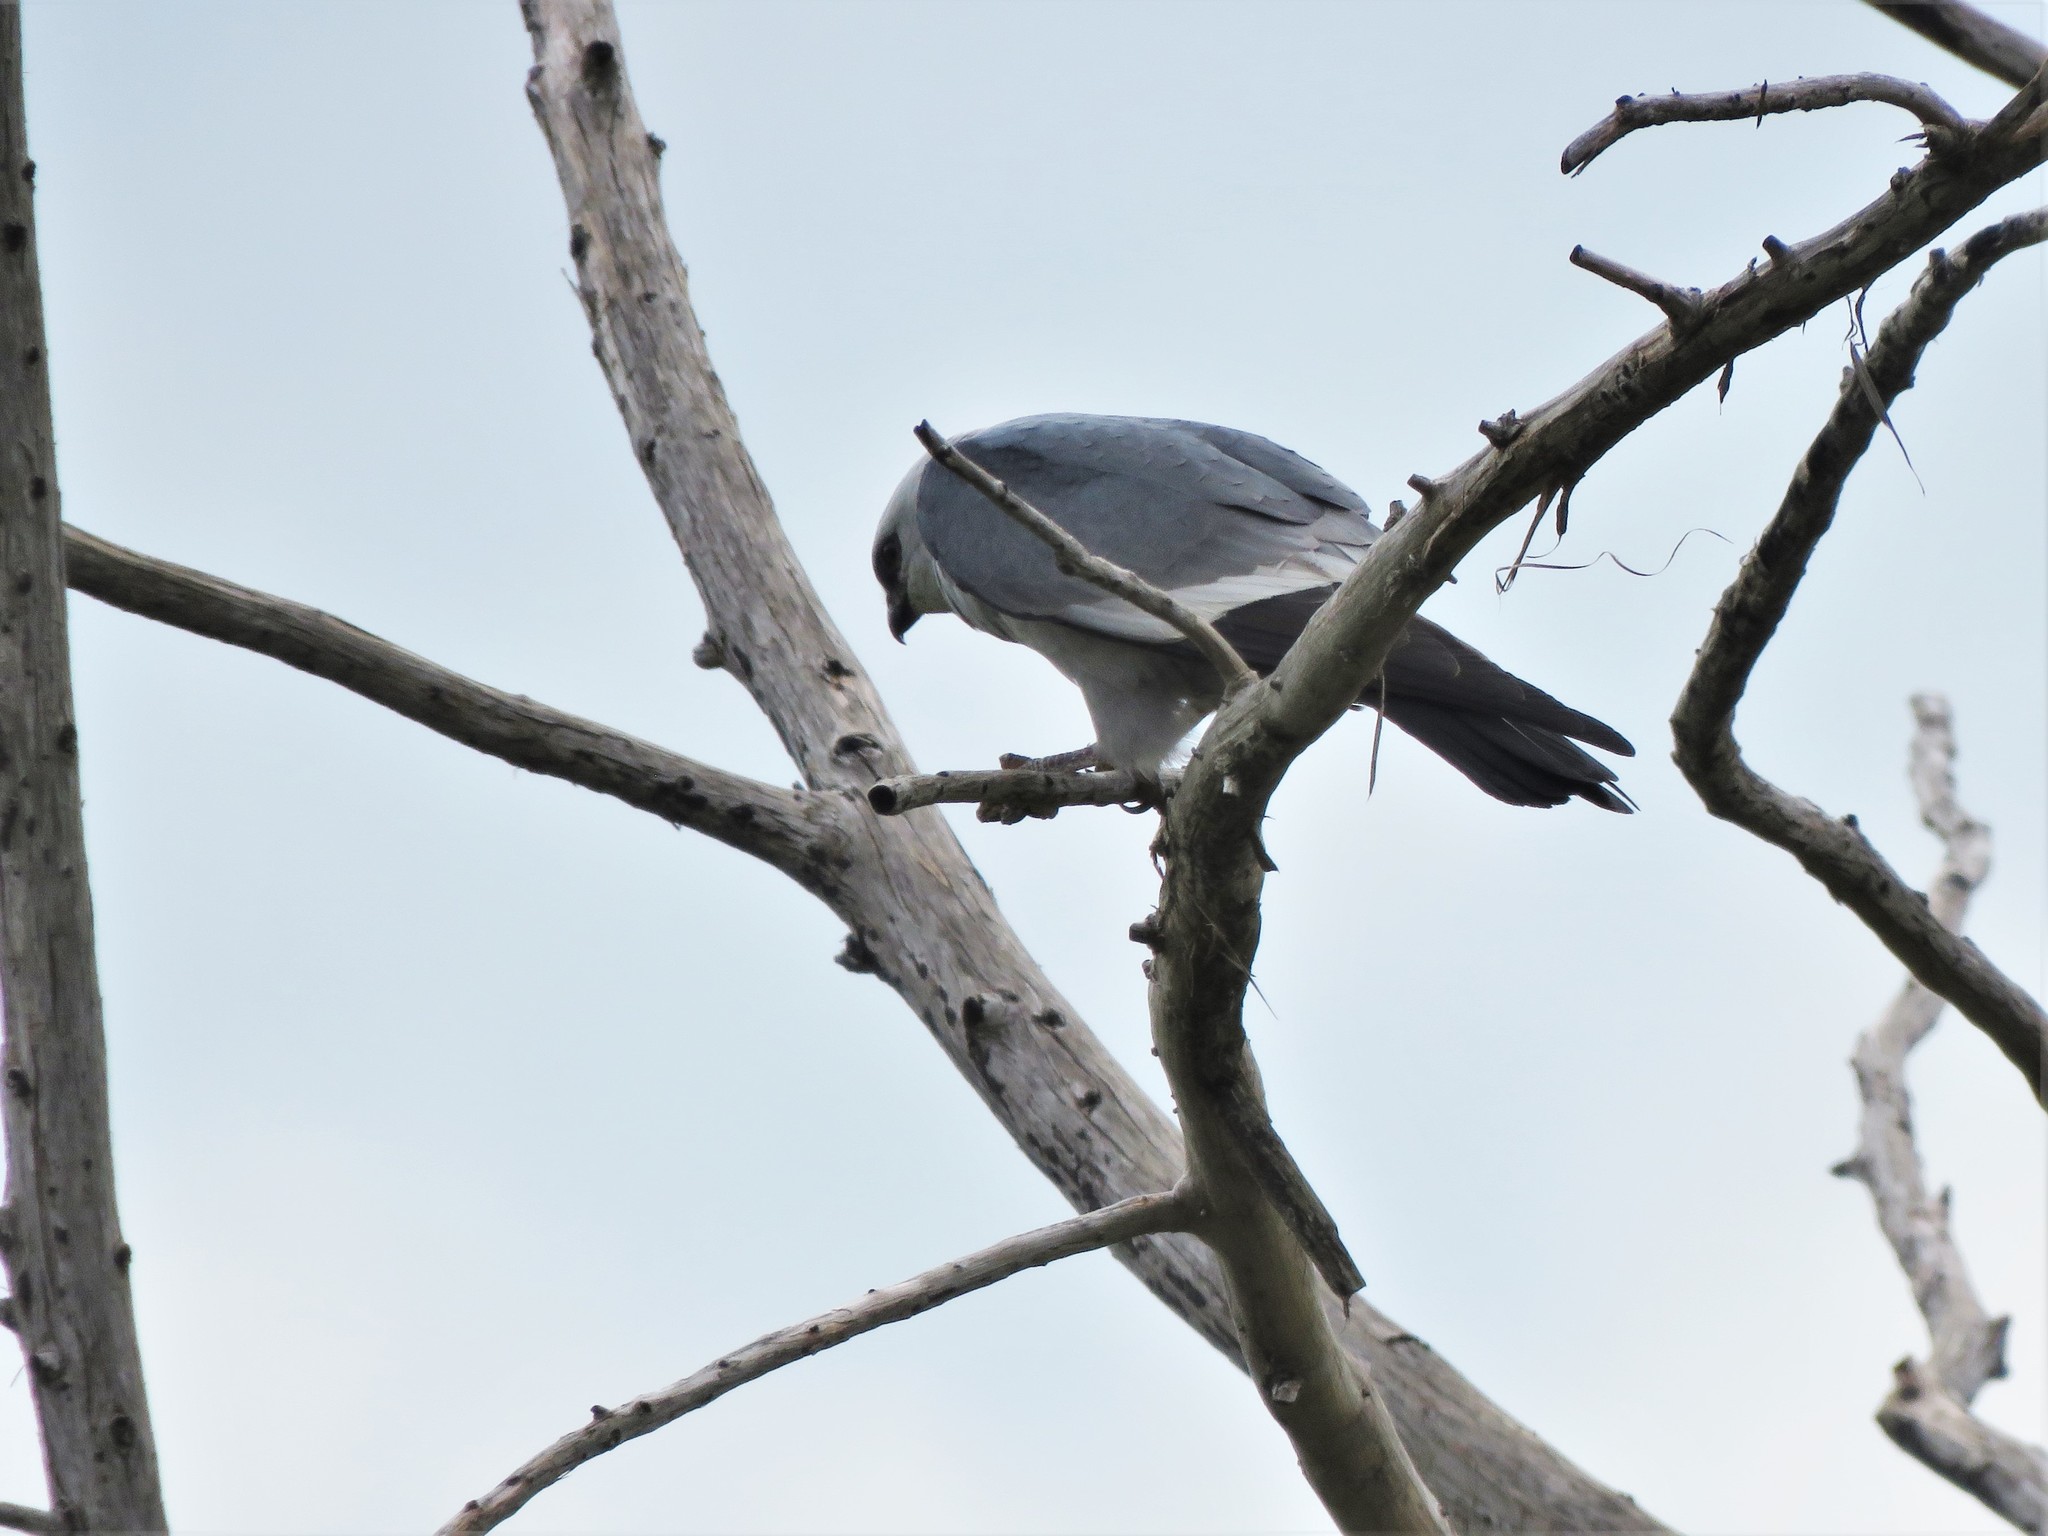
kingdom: Animalia
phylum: Chordata
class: Aves
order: Accipitriformes
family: Accipitridae
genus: Ictinia
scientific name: Ictinia mississippiensis
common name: Mississippi kite
